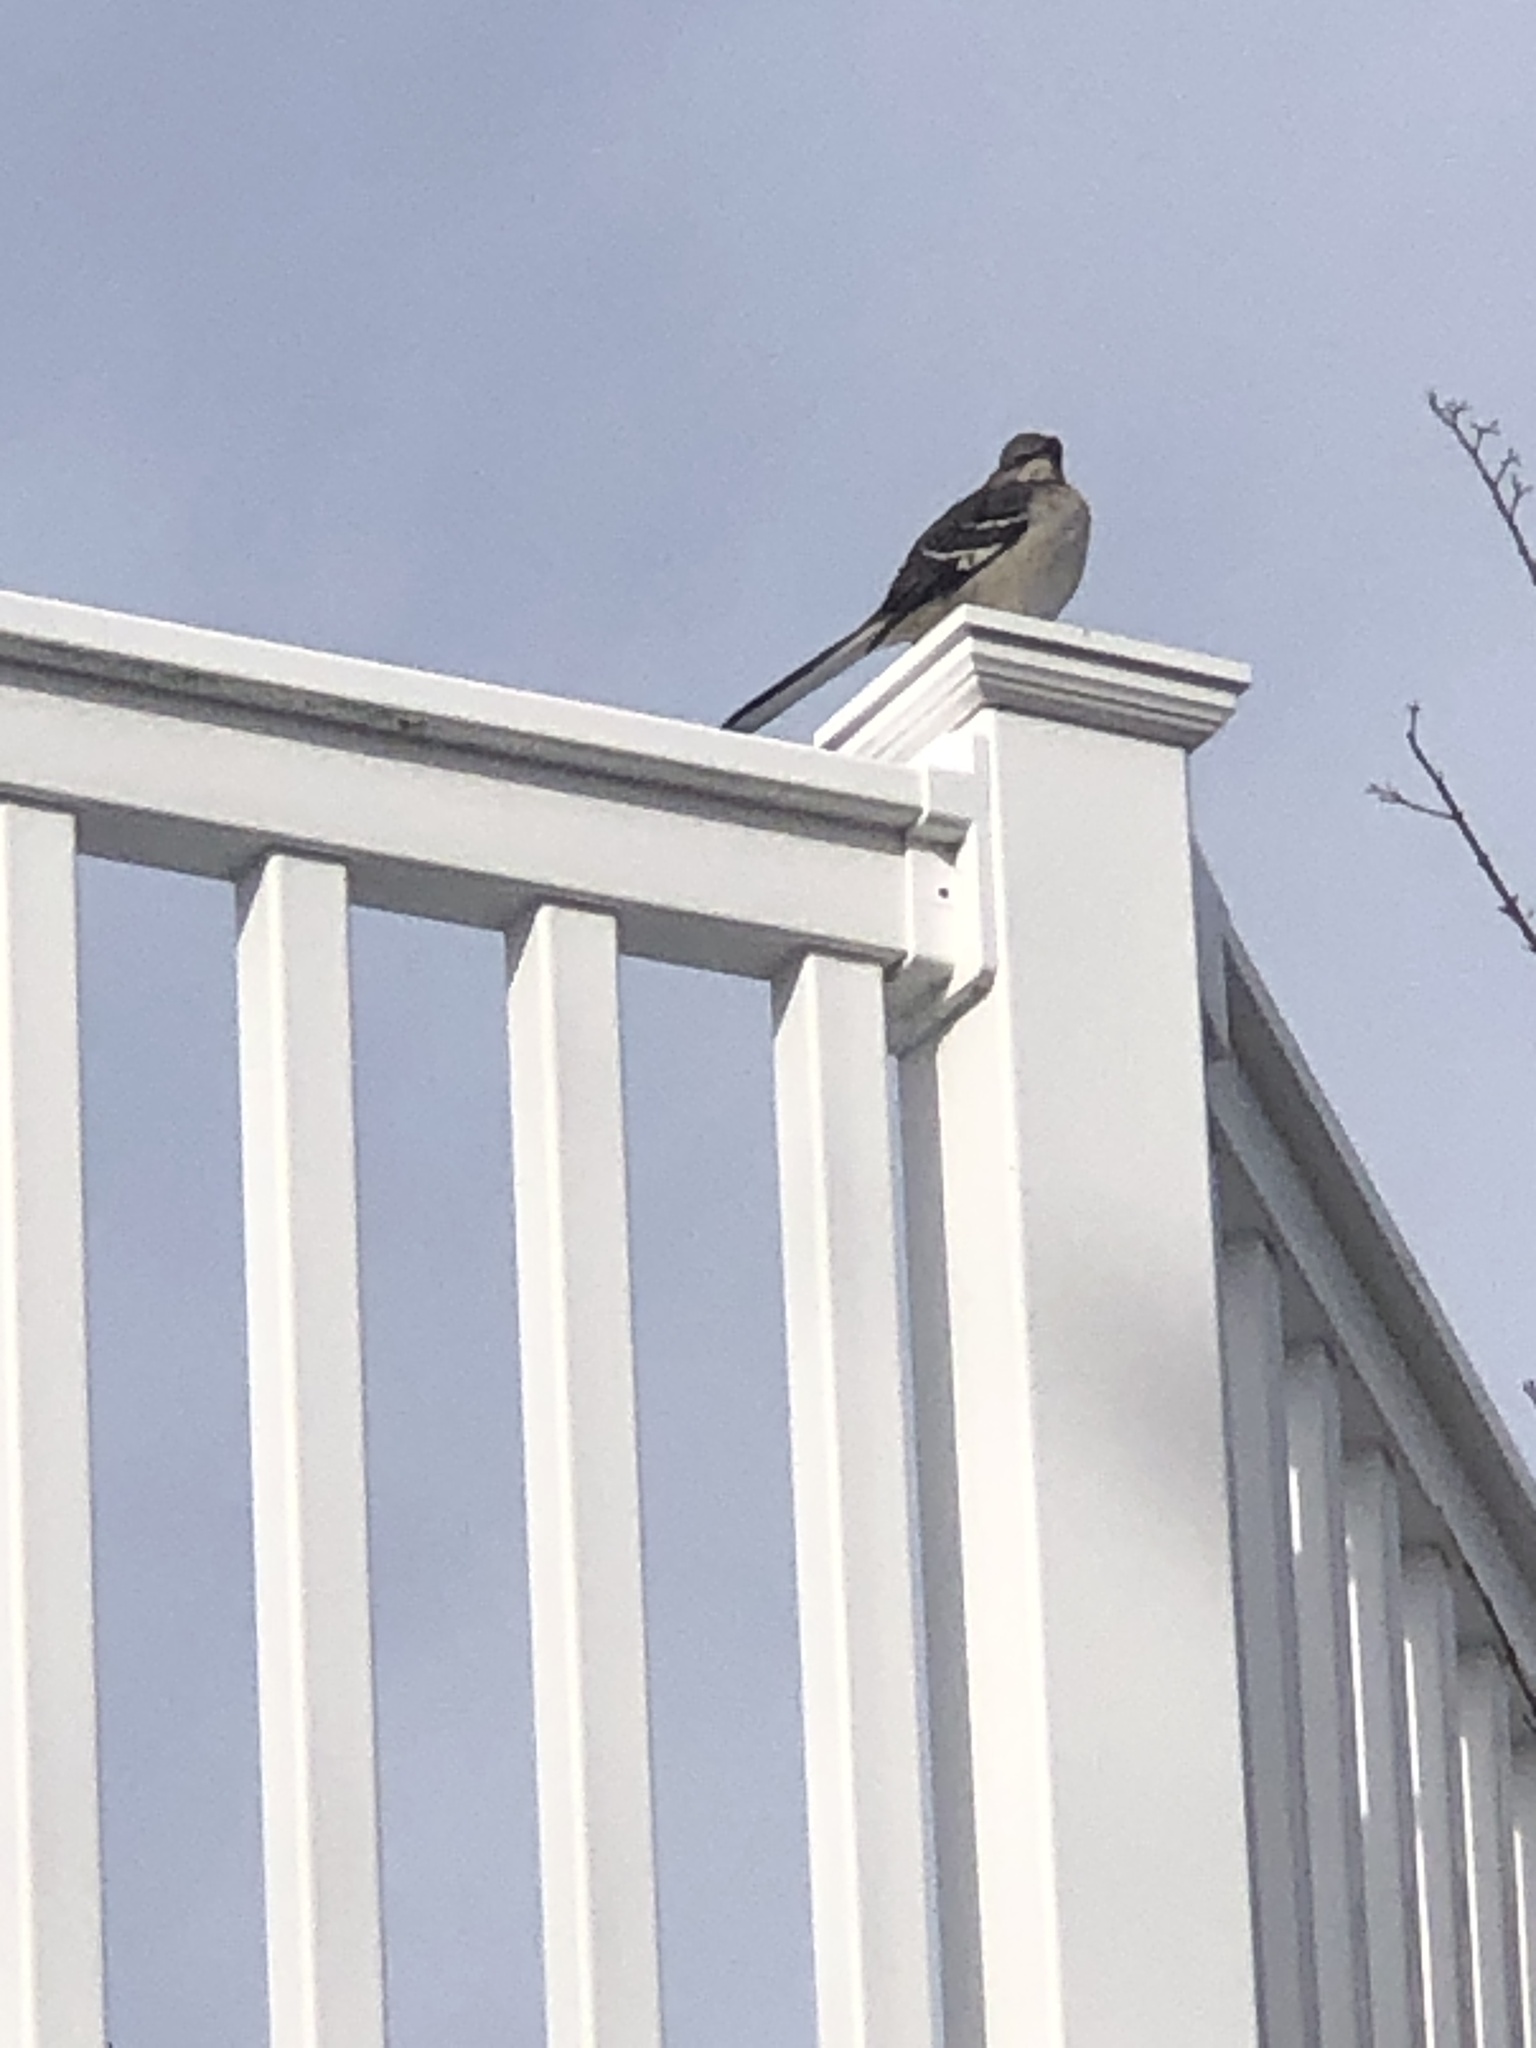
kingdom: Animalia
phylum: Chordata
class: Aves
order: Passeriformes
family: Mimidae
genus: Mimus
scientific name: Mimus polyglottos
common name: Northern mockingbird
